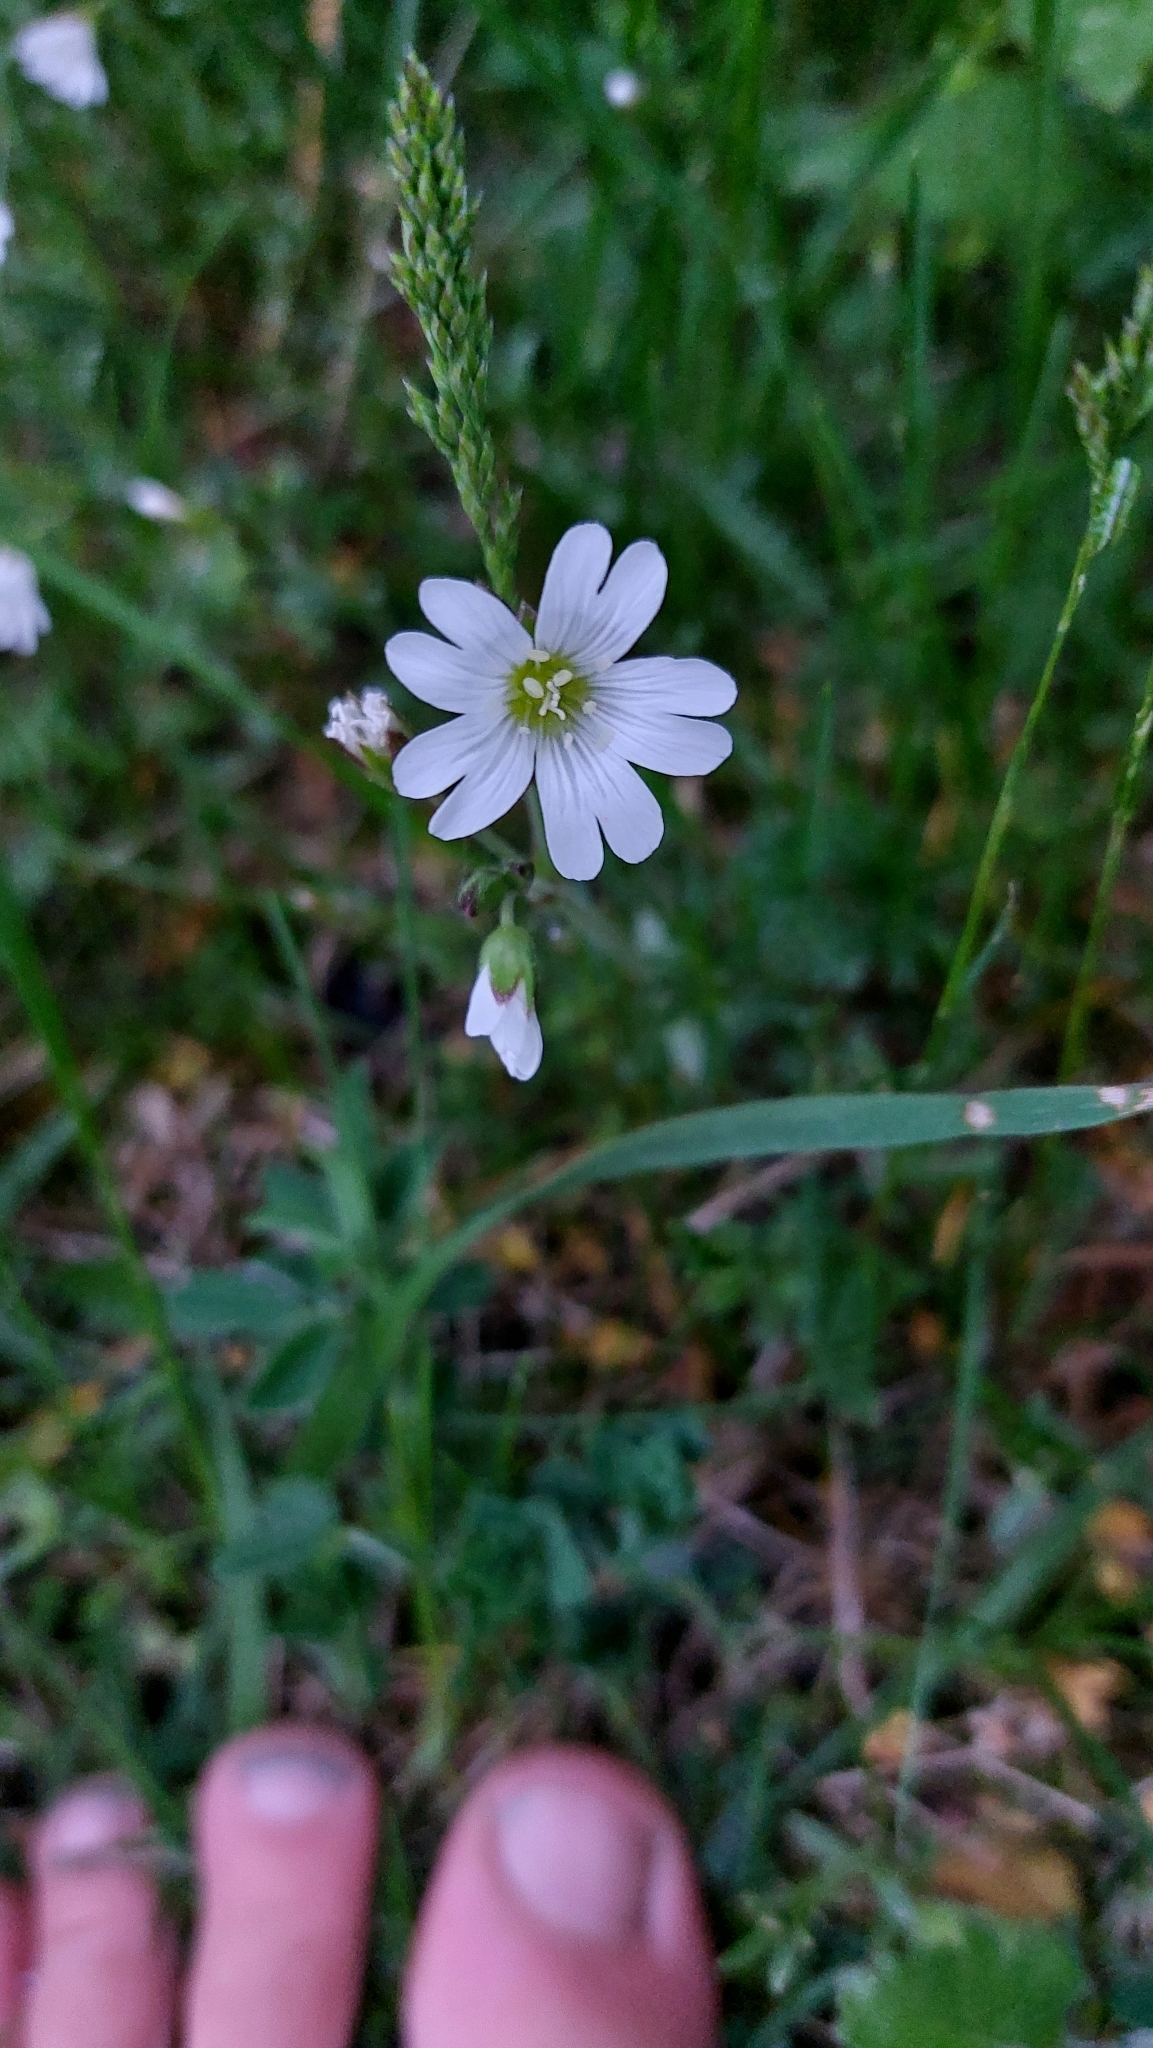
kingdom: Plantae
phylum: Tracheophyta
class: Magnoliopsida
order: Caryophyllales
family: Caryophyllaceae
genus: Cerastium
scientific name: Cerastium arvense
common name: Field mouse-ear
